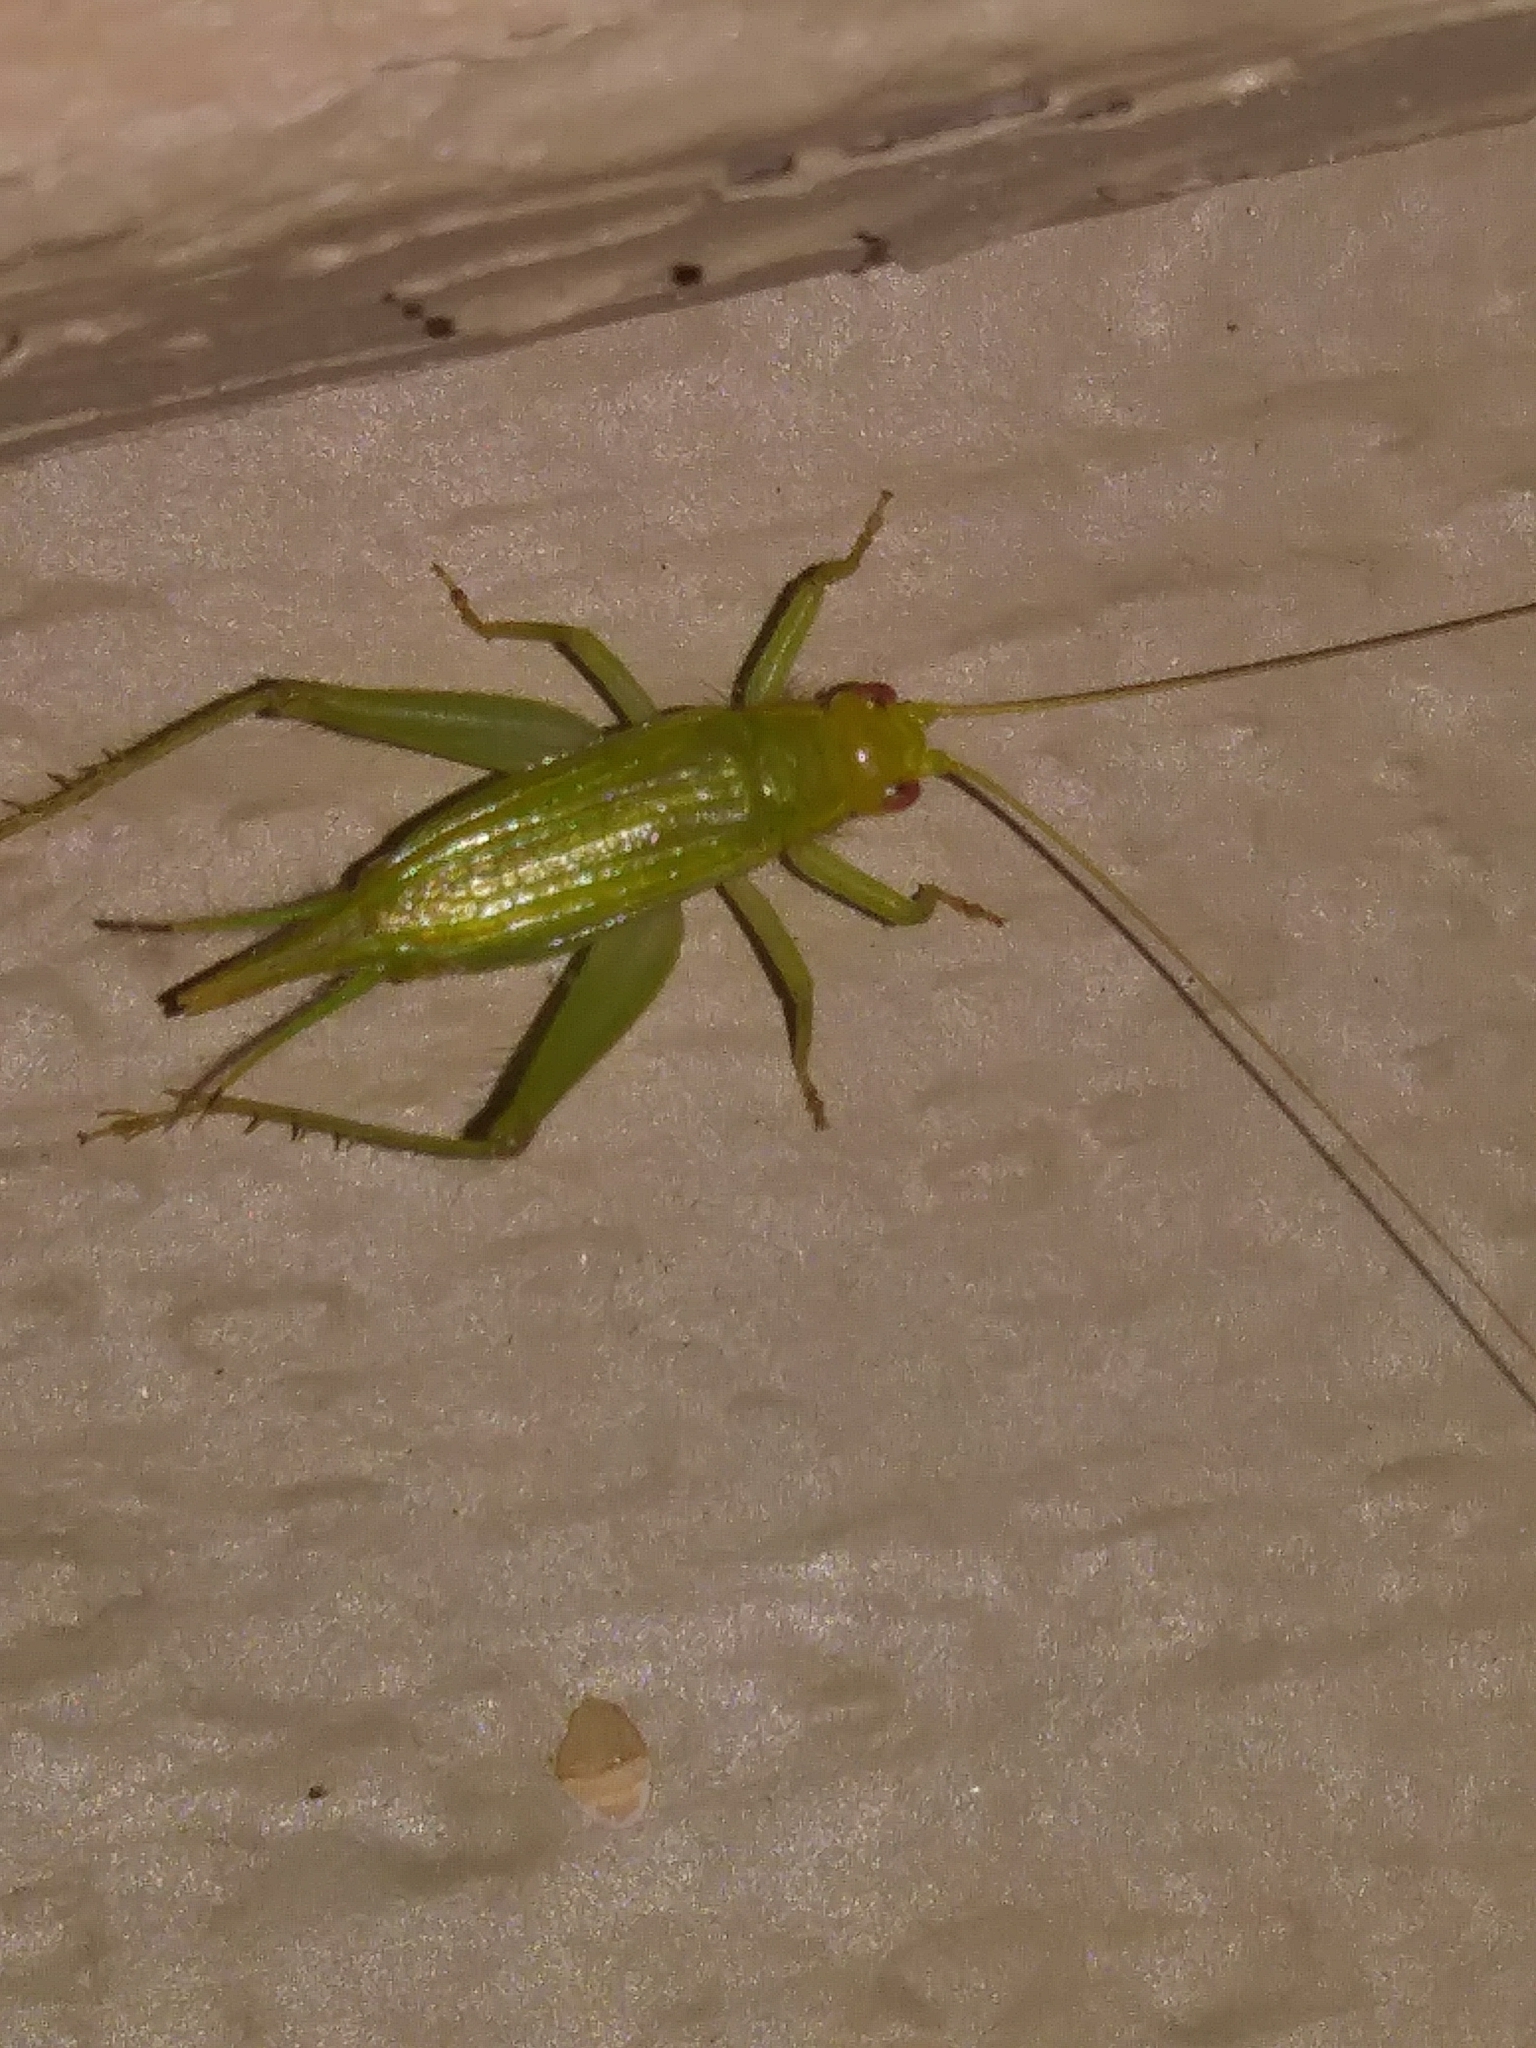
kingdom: Animalia
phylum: Arthropoda
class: Insecta
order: Orthoptera
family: Trigonidiidae
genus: Cyrtoxipha
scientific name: Cyrtoxipha columbiana
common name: Columbian trig
